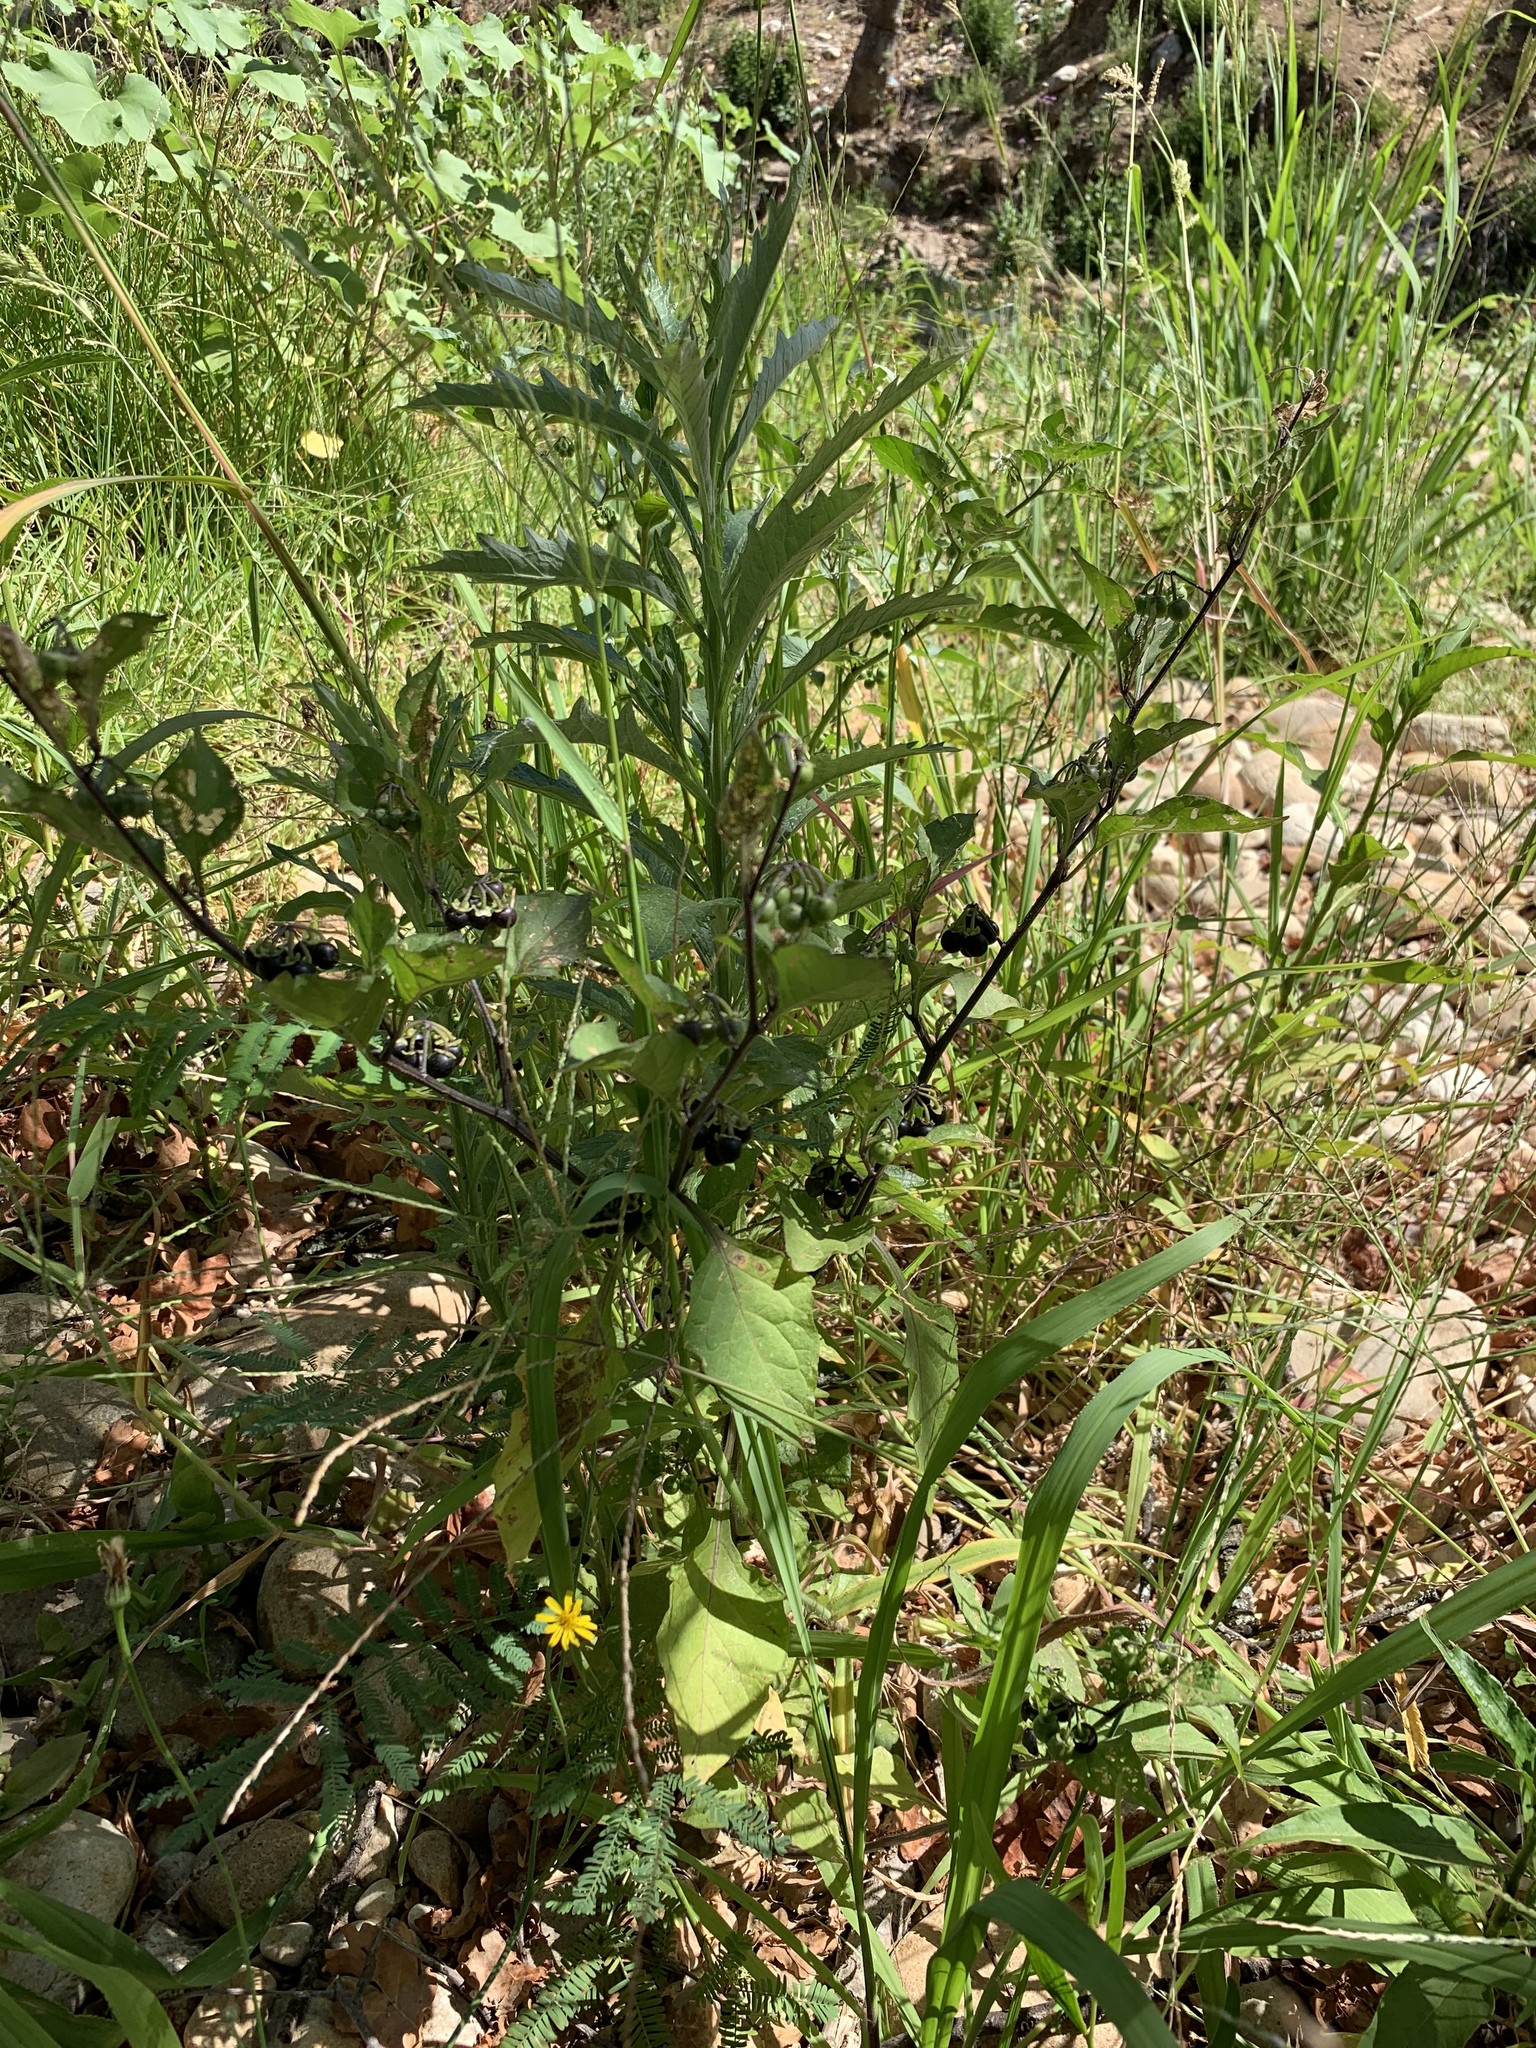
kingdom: Plantae
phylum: Tracheophyta
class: Magnoliopsida
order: Solanales
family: Solanaceae
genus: Solanum
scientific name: Solanum nigrum
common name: Black nightshade
